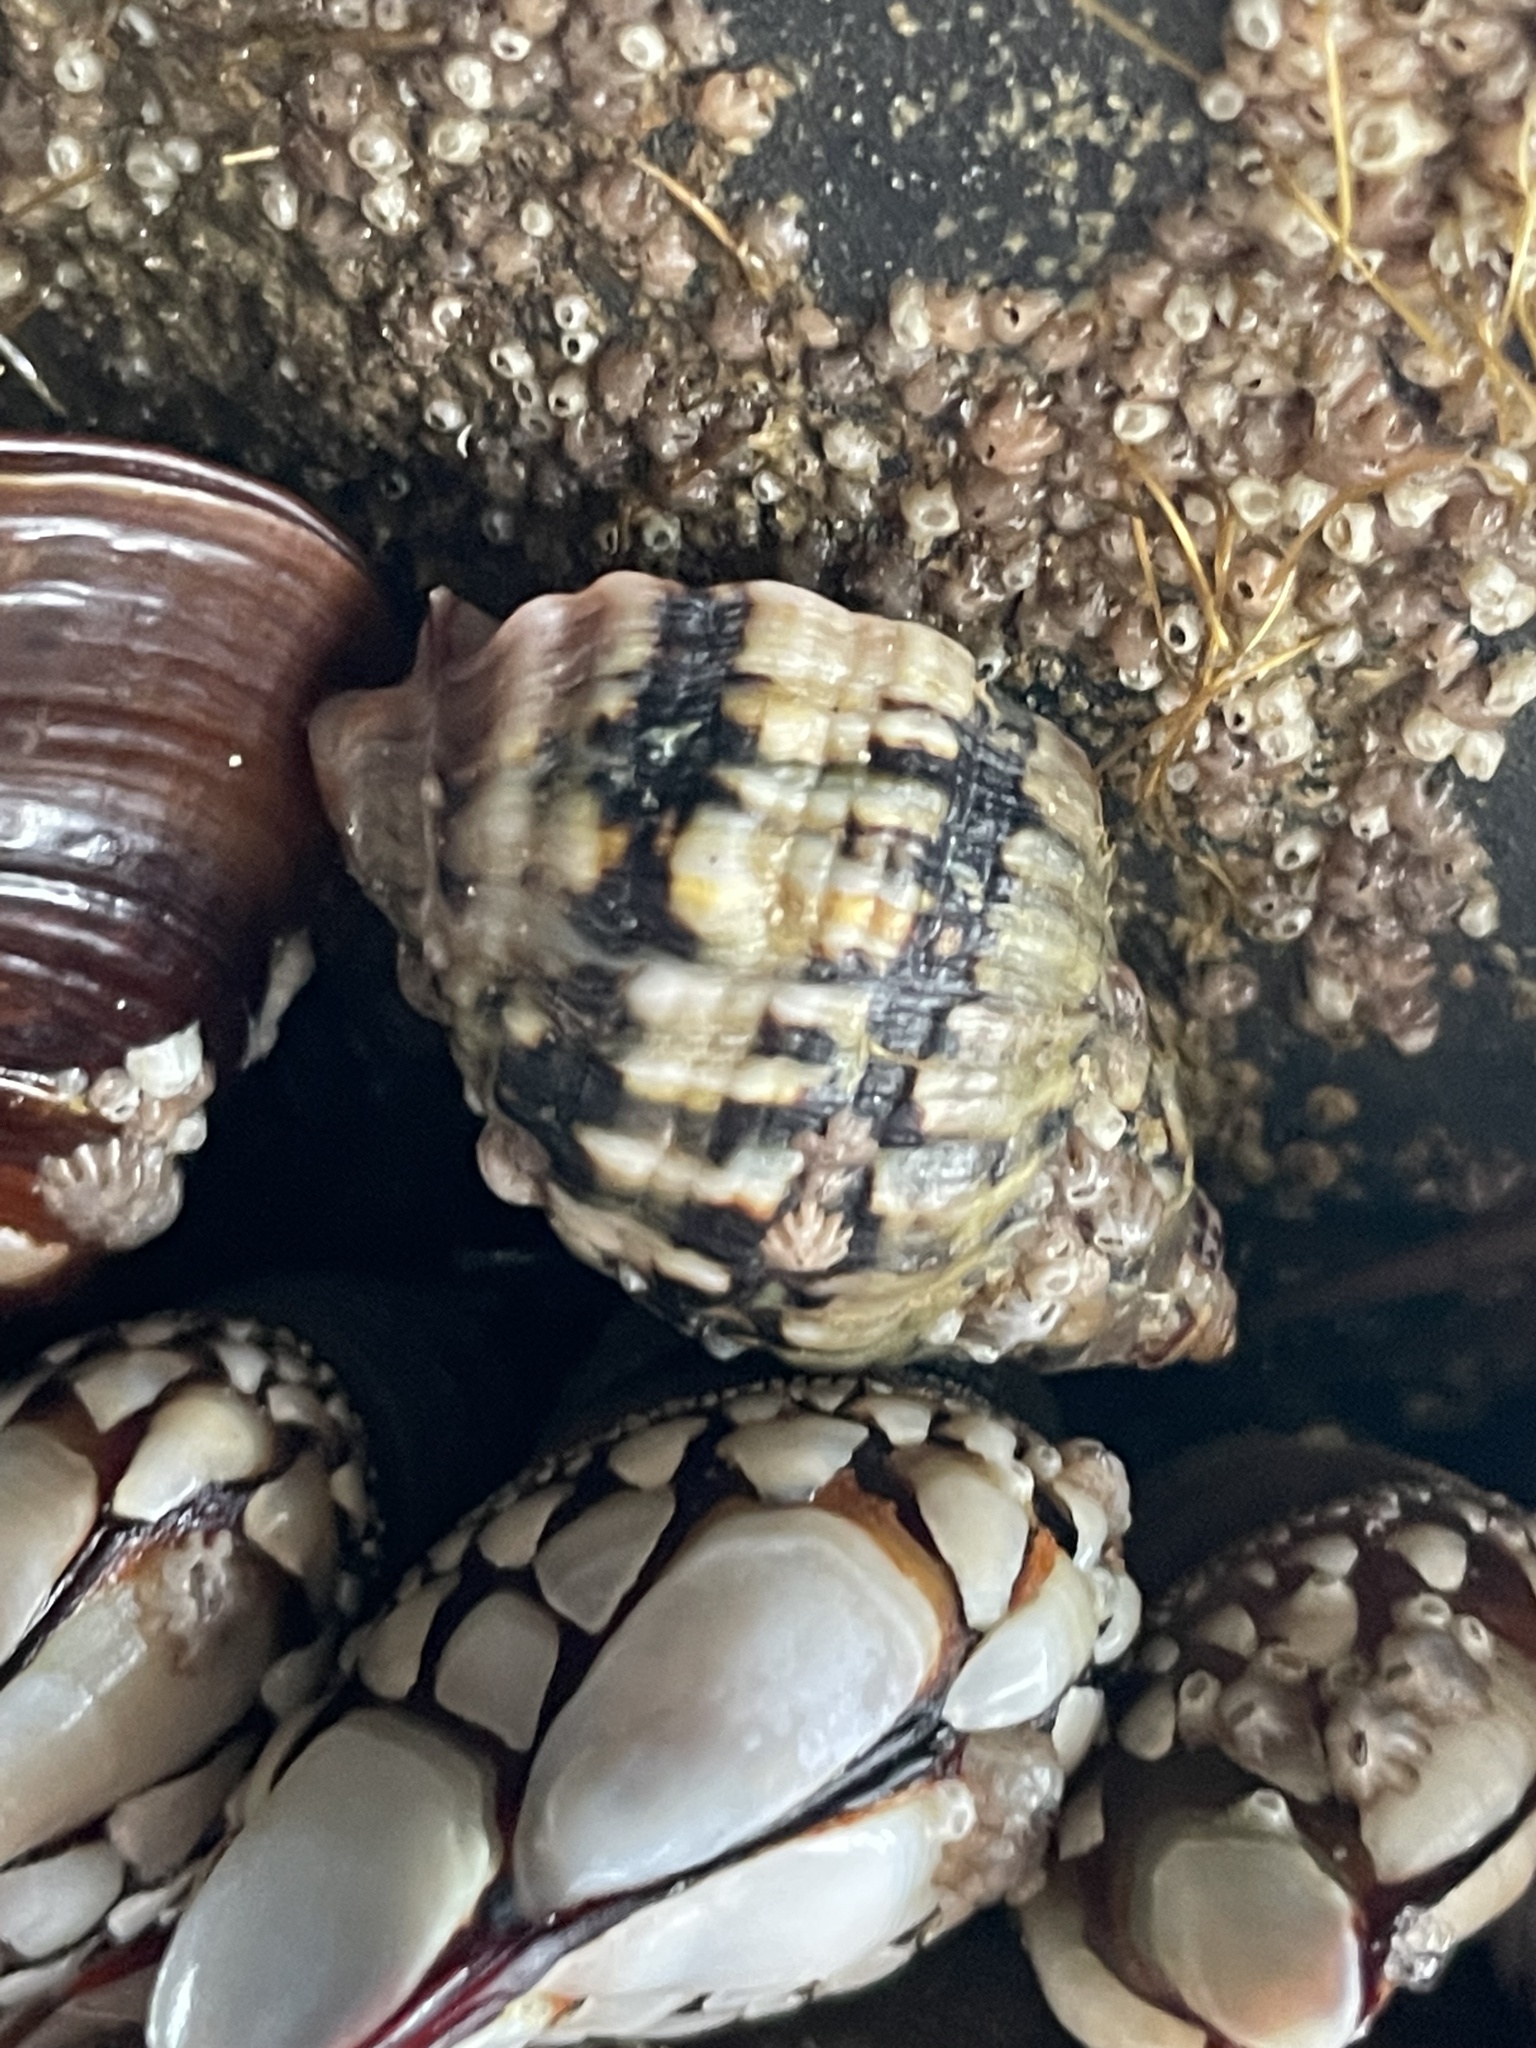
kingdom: Animalia
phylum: Mollusca
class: Gastropoda
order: Neogastropoda
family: Muricidae
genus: Mexacanthina
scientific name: Mexacanthina lugubris
